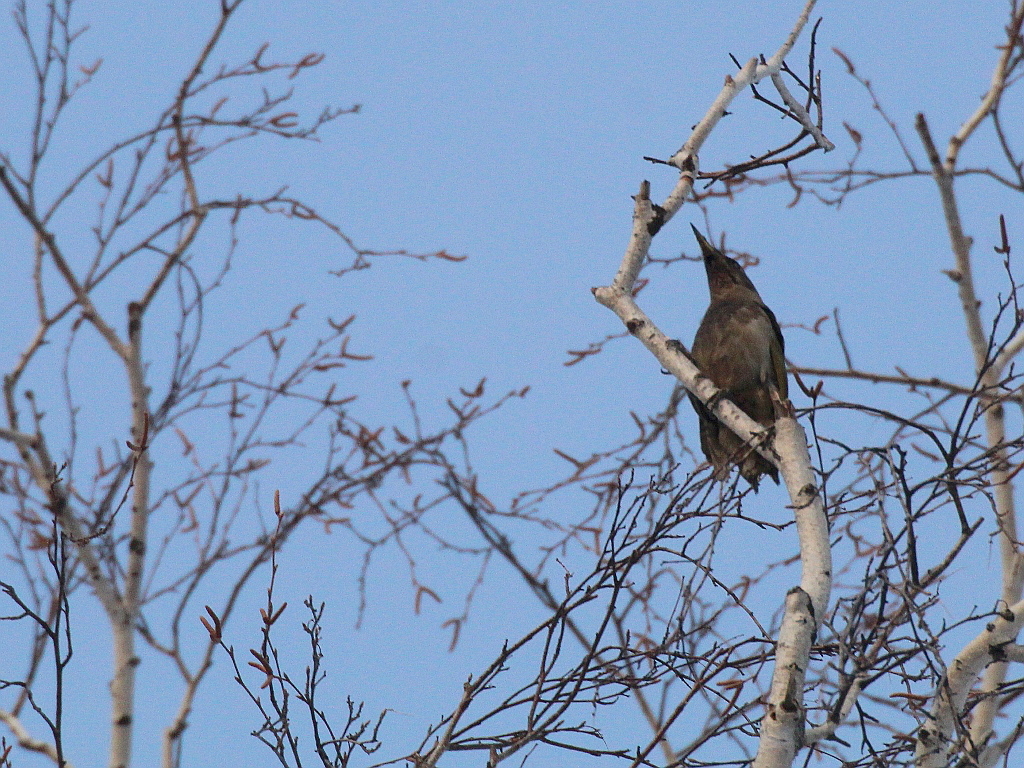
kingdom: Animalia
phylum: Chordata
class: Aves
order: Piciformes
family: Picidae
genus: Picus
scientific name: Picus canus
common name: Grey-headed woodpecker
